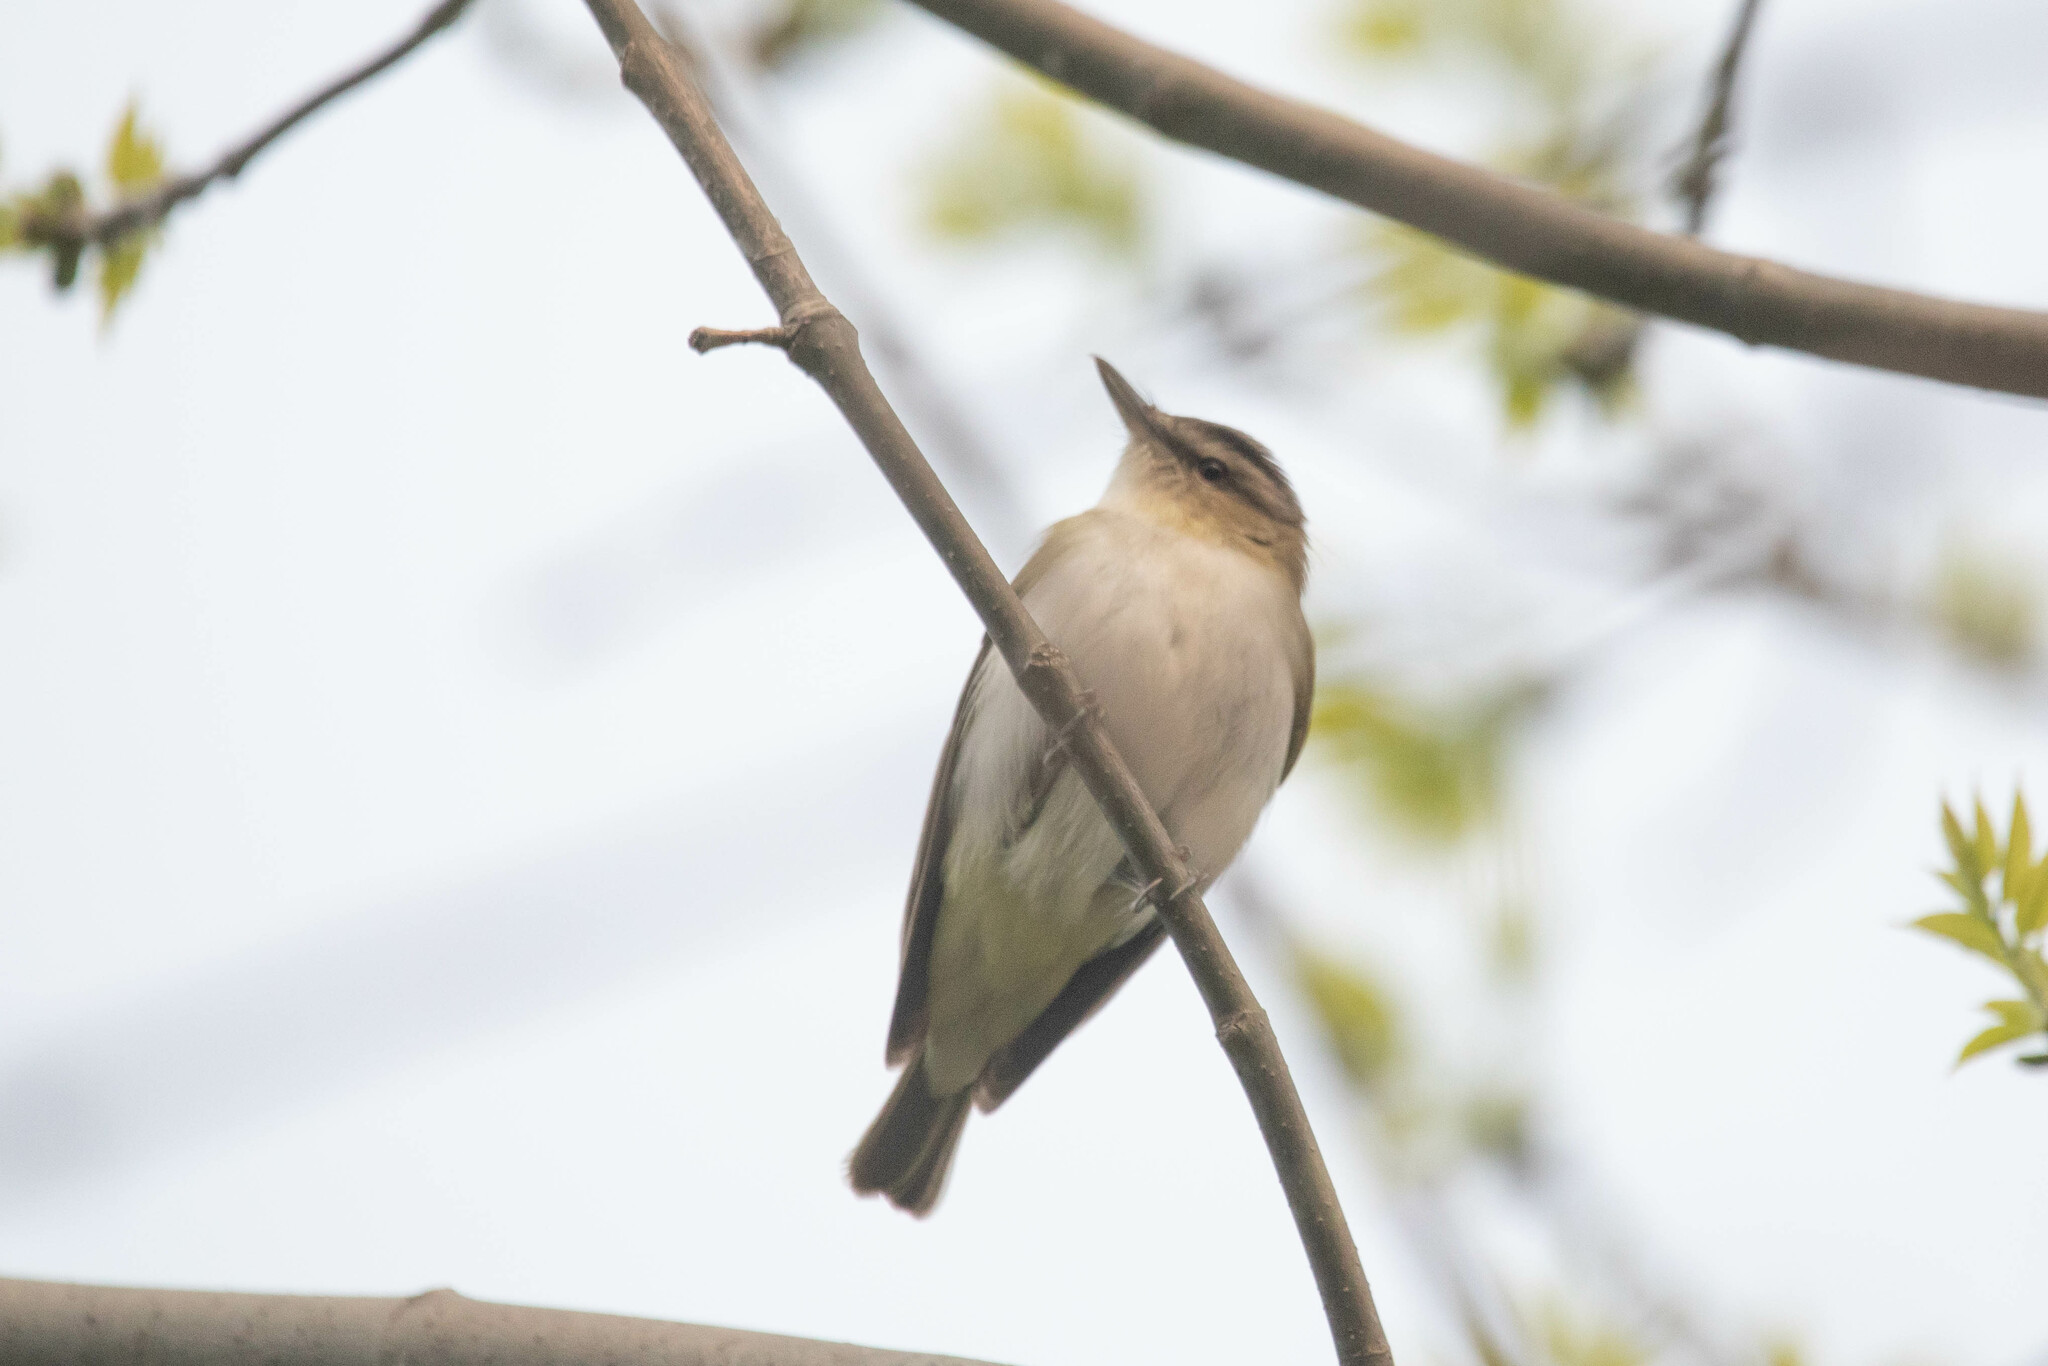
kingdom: Animalia
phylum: Chordata
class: Aves
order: Passeriformes
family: Vireonidae
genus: Vireo
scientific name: Vireo olivaceus
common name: Red-eyed vireo
